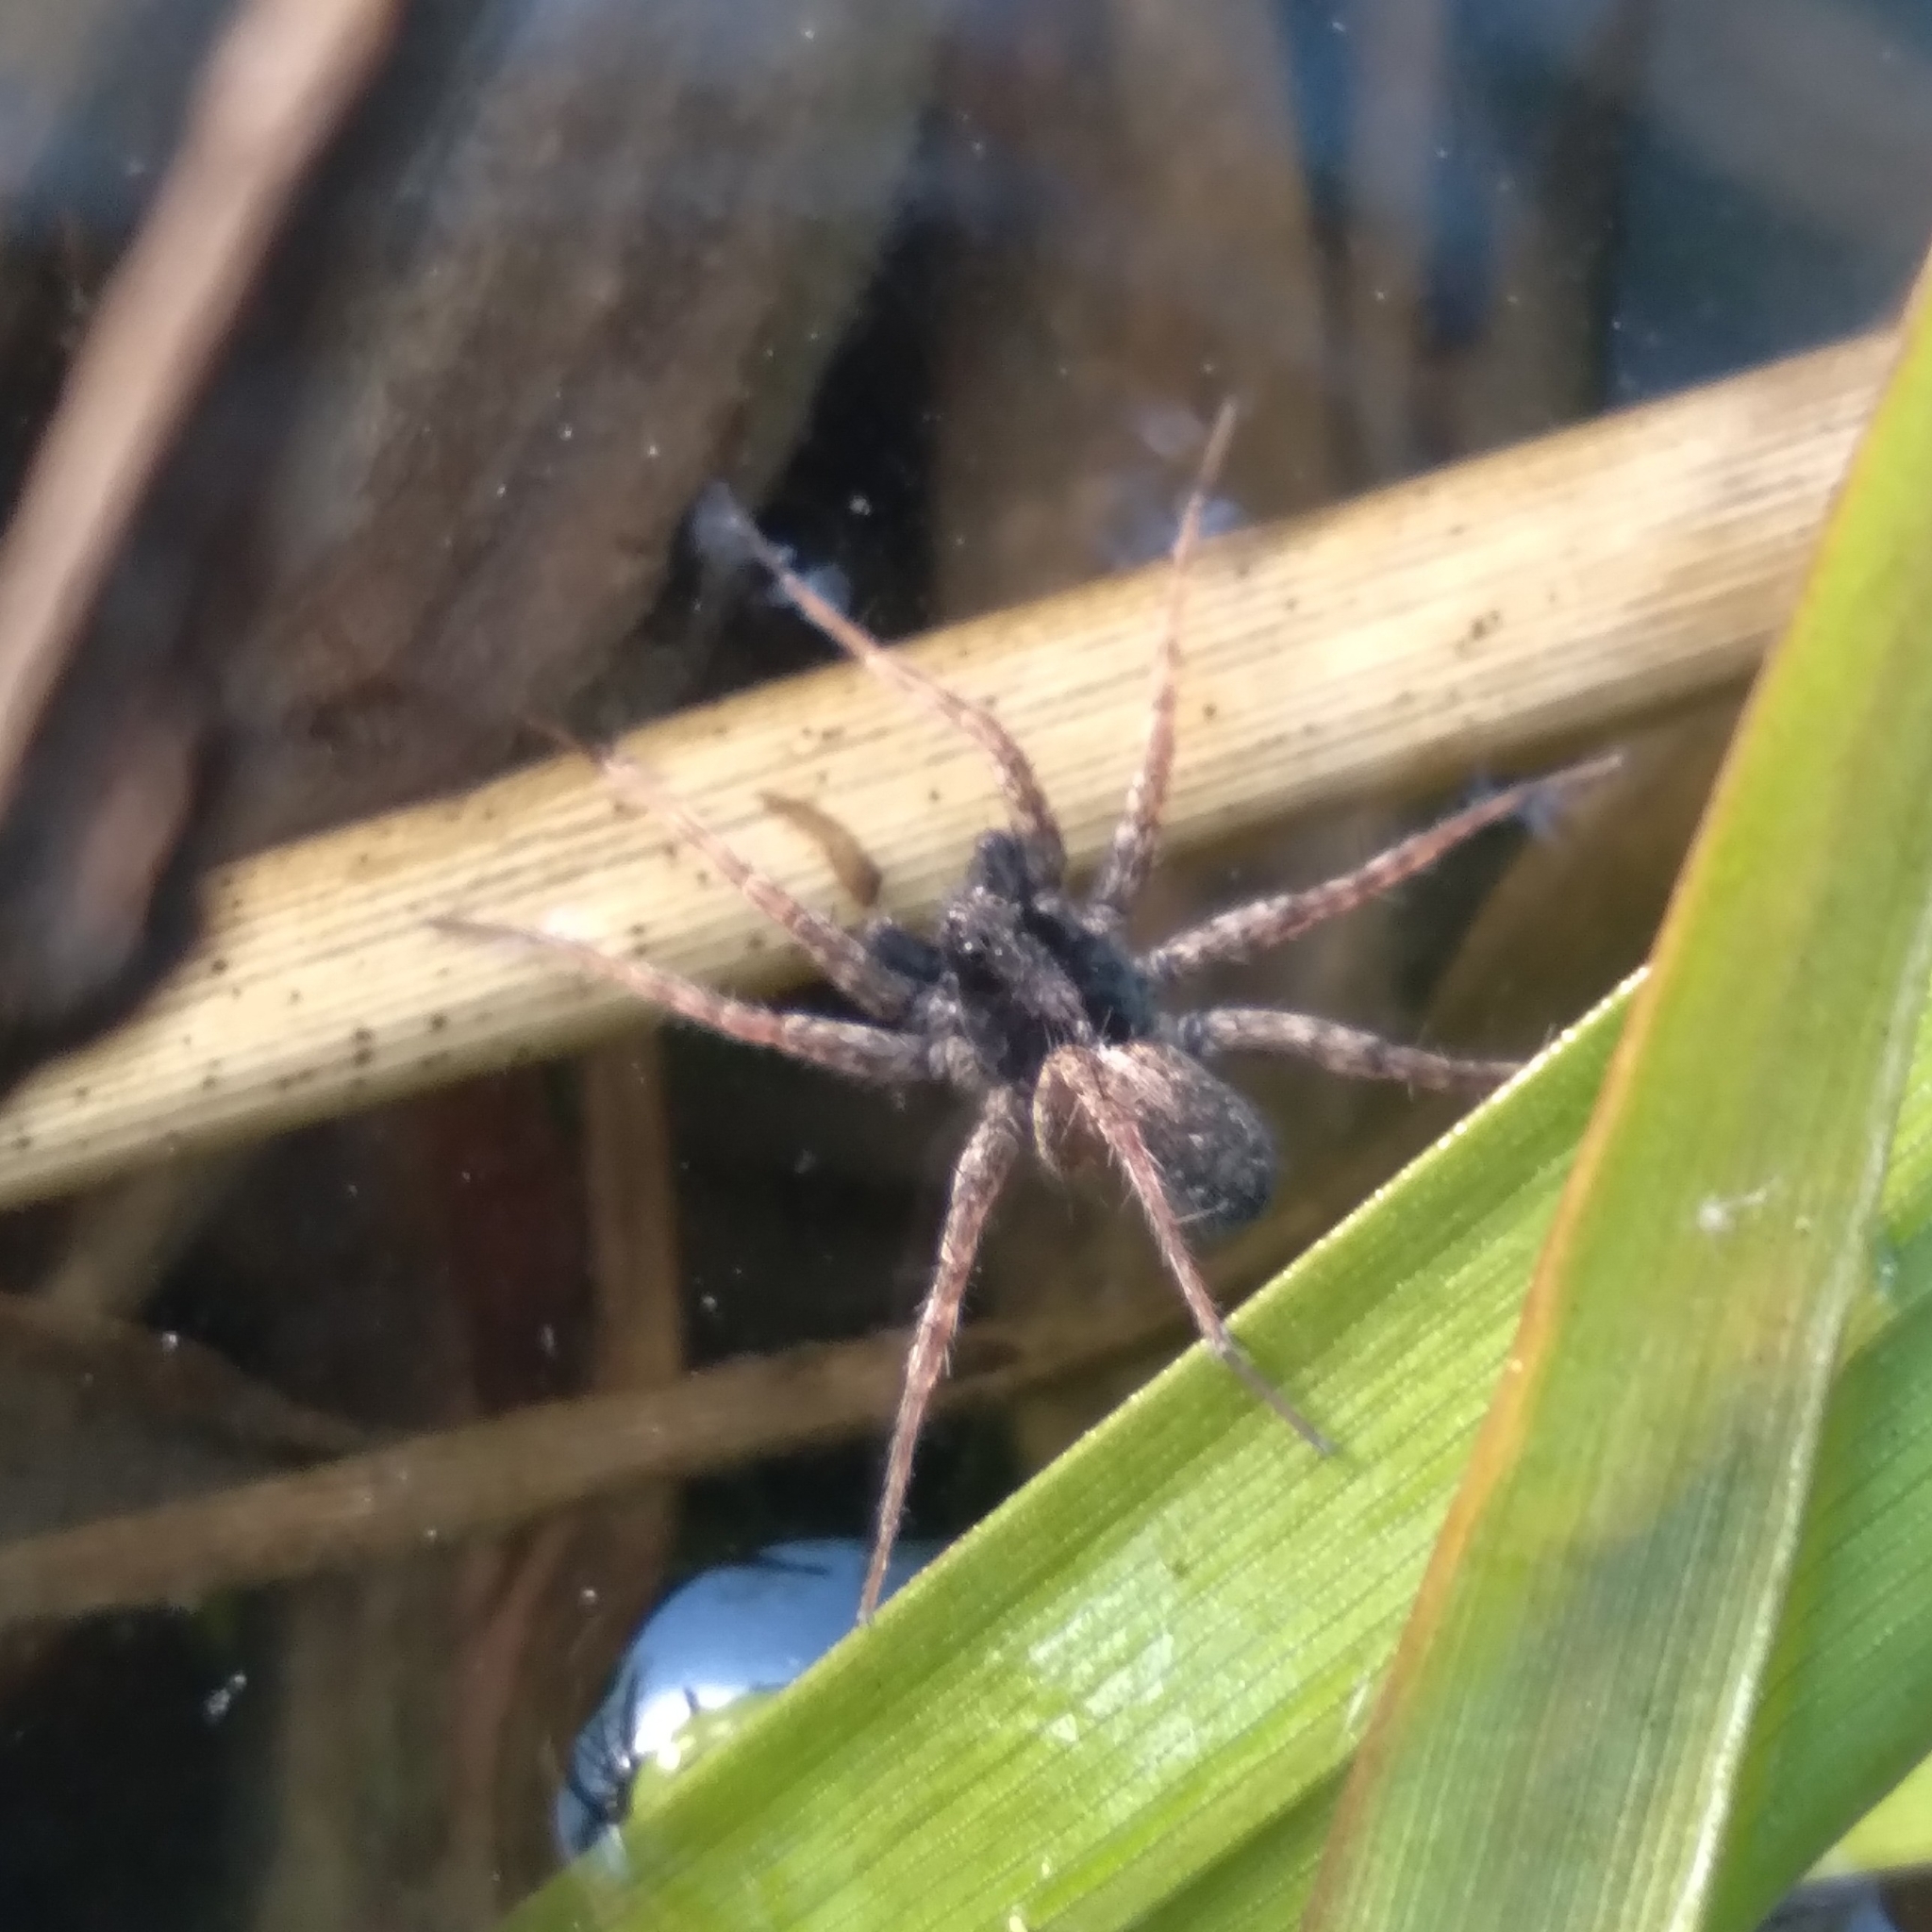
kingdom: Animalia
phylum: Arthropoda
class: Arachnida
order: Araneae
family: Lycosidae
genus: Pardosa
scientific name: Pardosa
